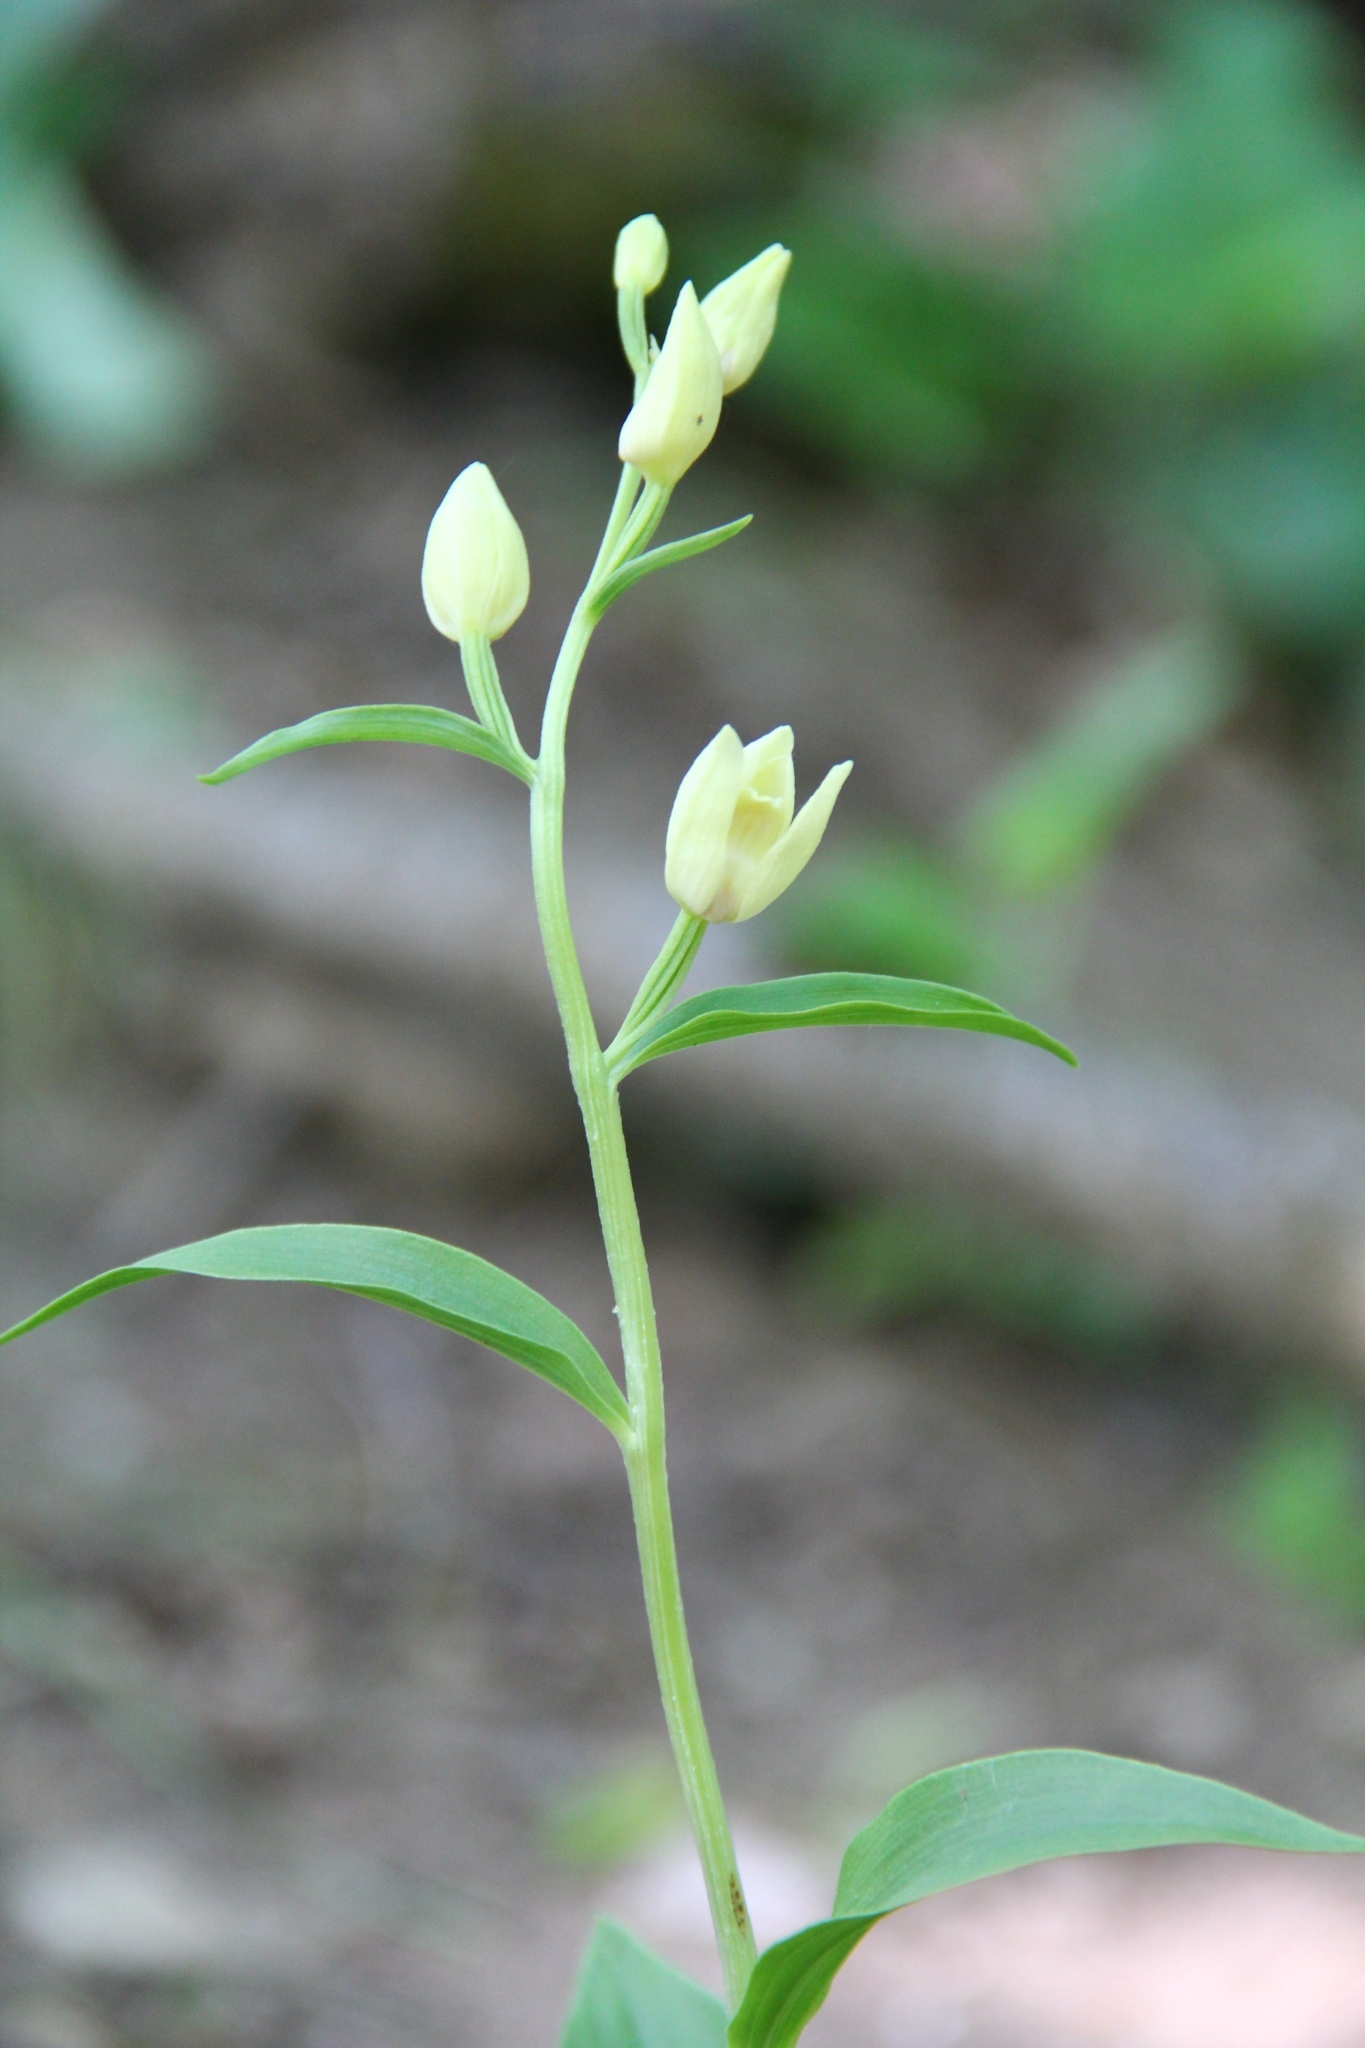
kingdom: Plantae
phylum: Tracheophyta
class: Liliopsida
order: Asparagales
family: Orchidaceae
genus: Cephalanthera
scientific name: Cephalanthera damasonium
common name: White helleborine
